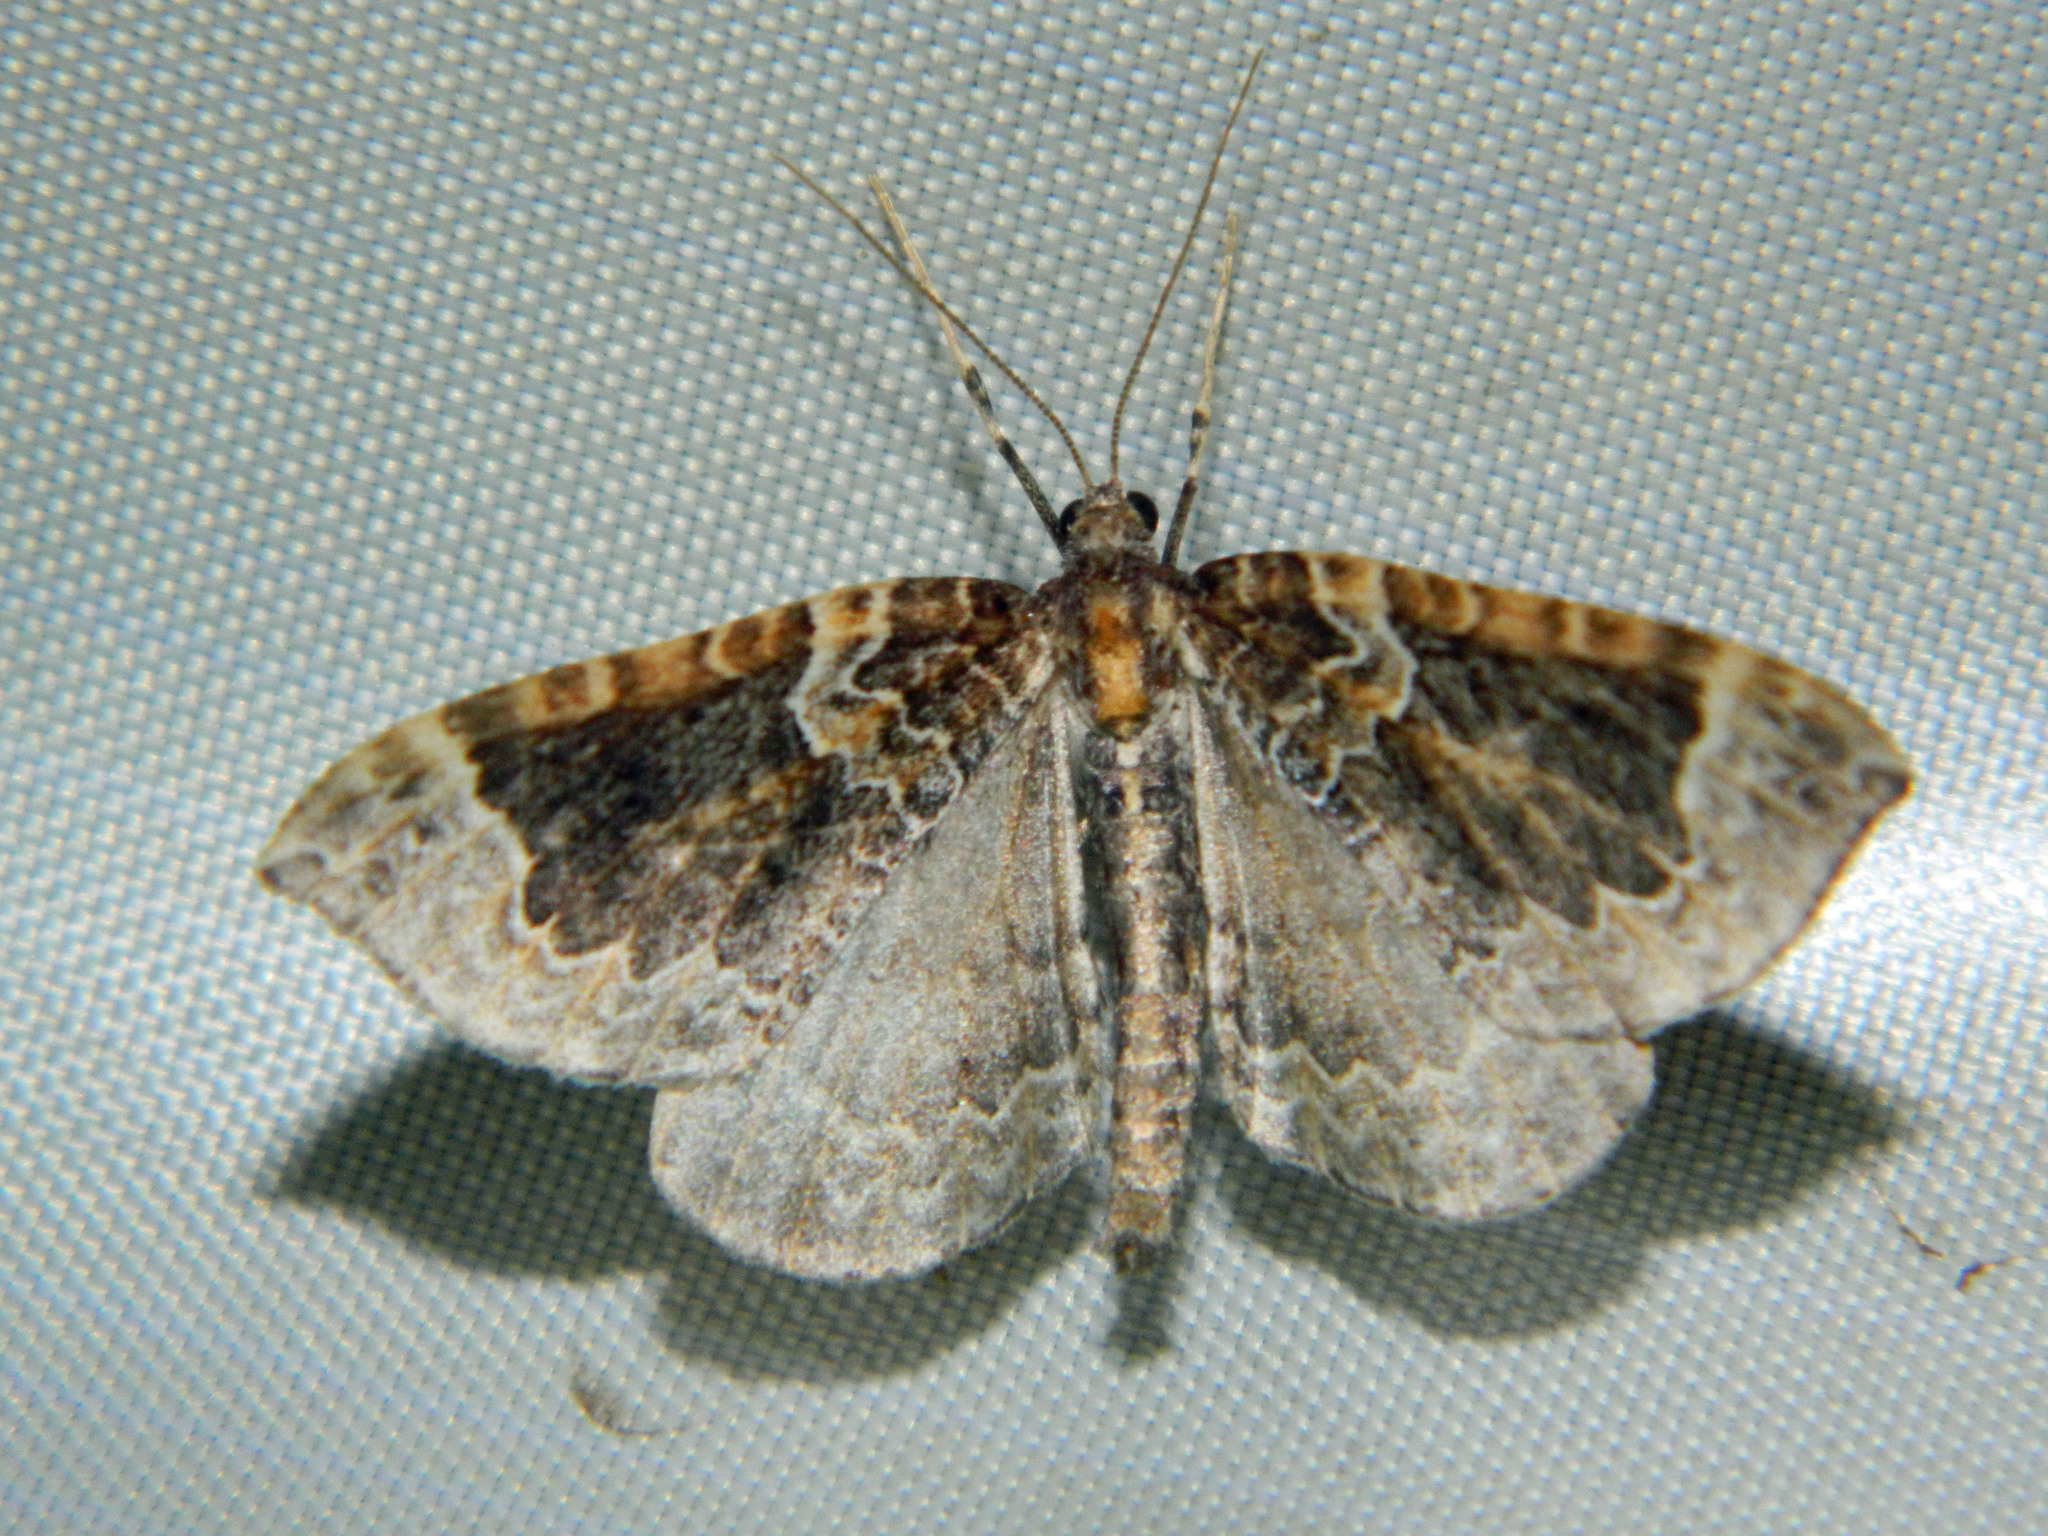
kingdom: Animalia
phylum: Arthropoda
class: Insecta
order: Lepidoptera
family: Geometridae
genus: Eulithis
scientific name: Eulithis flavibrunneata
